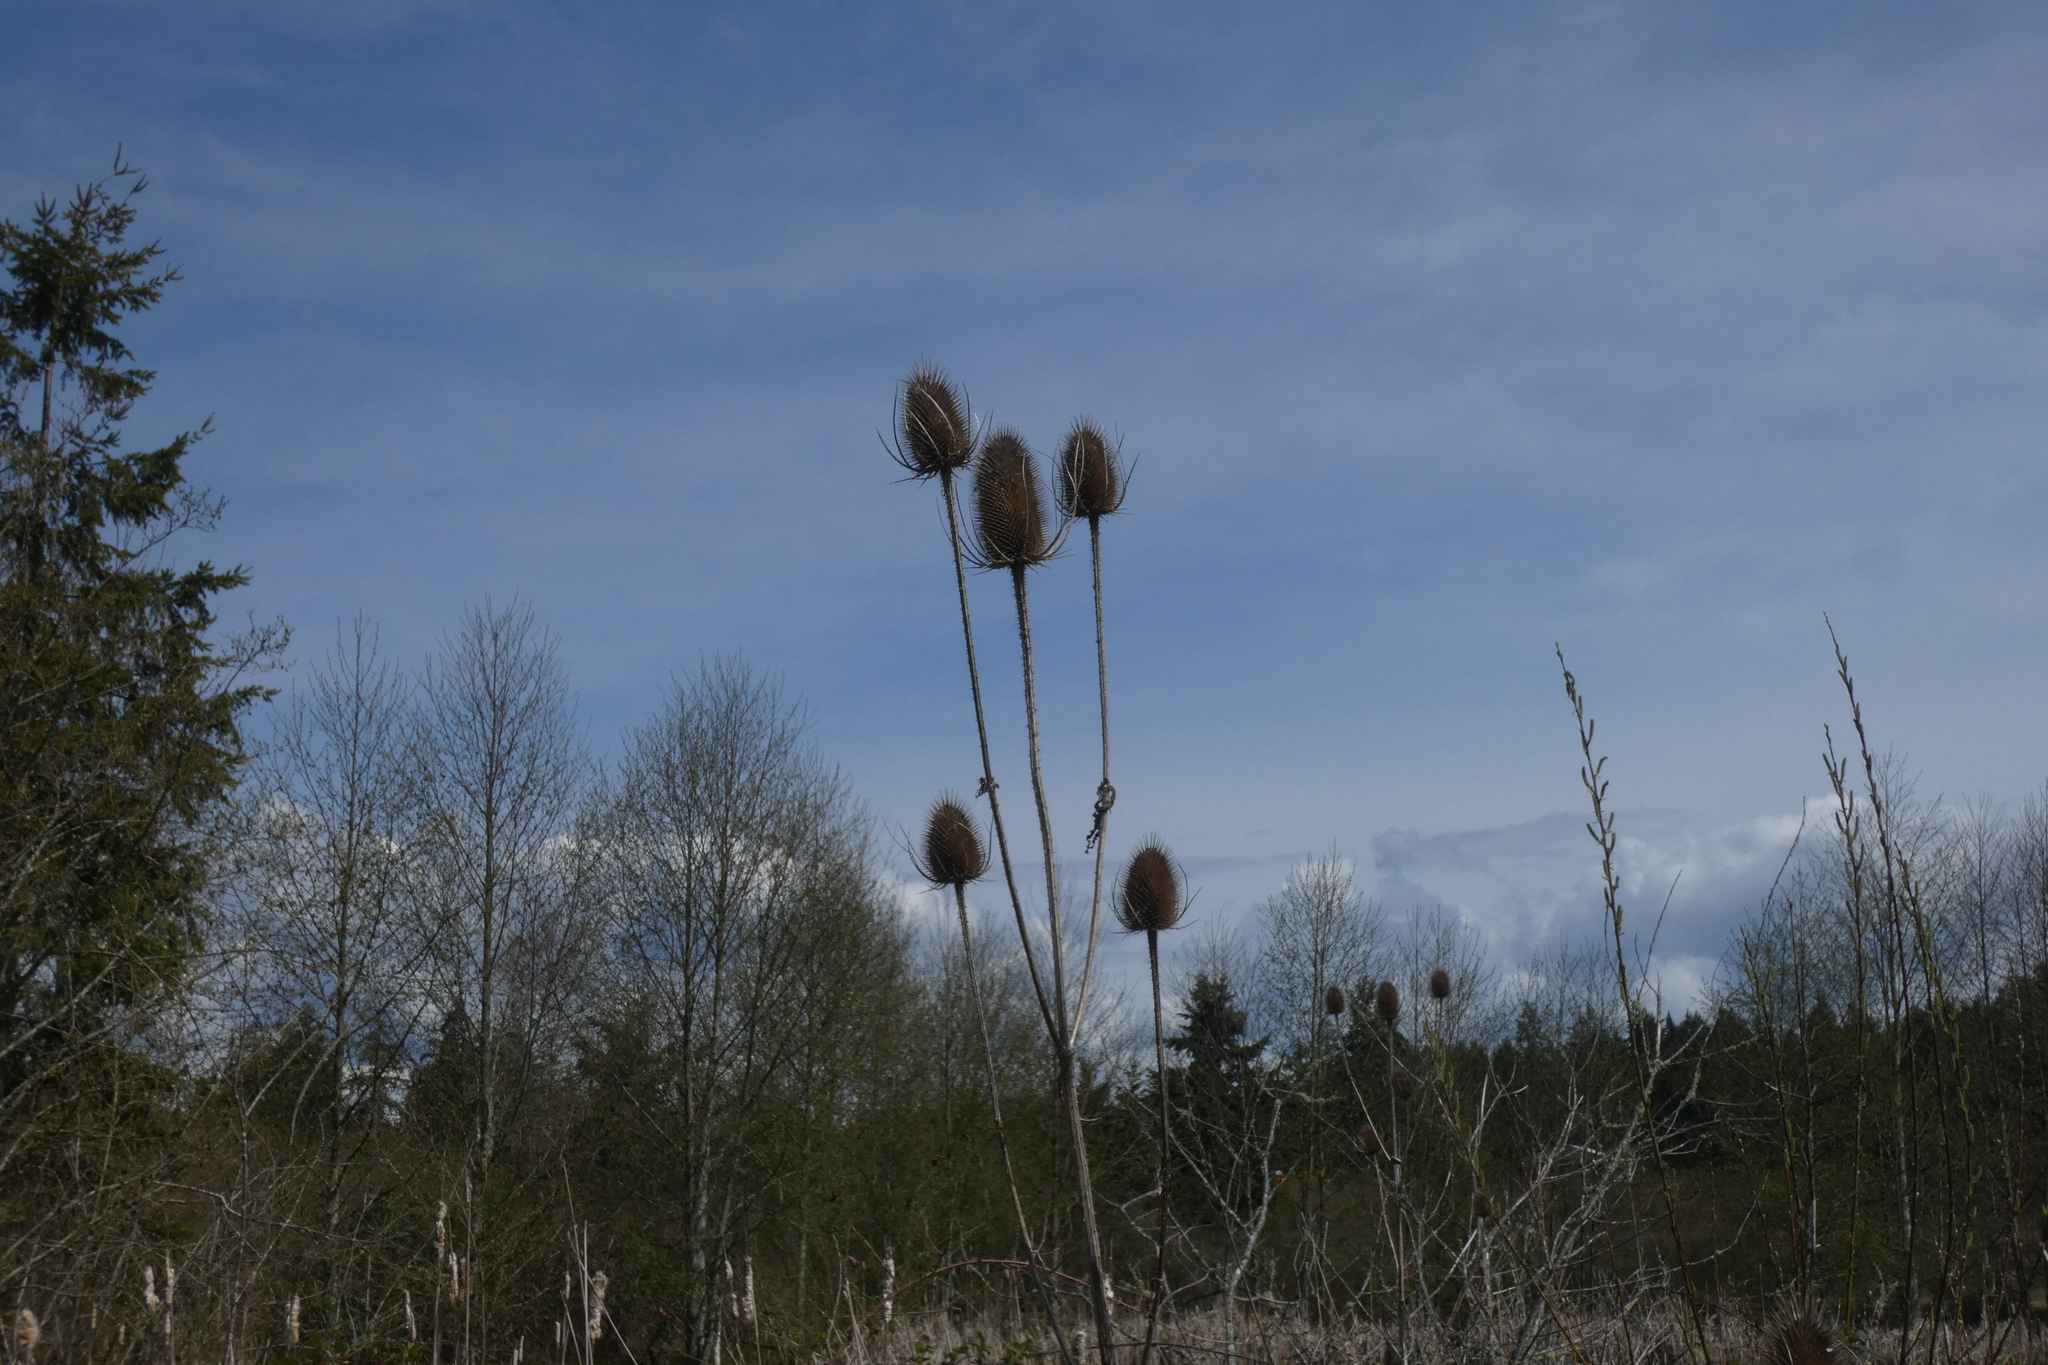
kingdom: Plantae
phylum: Tracheophyta
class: Magnoliopsida
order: Dipsacales
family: Caprifoliaceae
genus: Dipsacus
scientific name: Dipsacus fullonum
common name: Teasel
